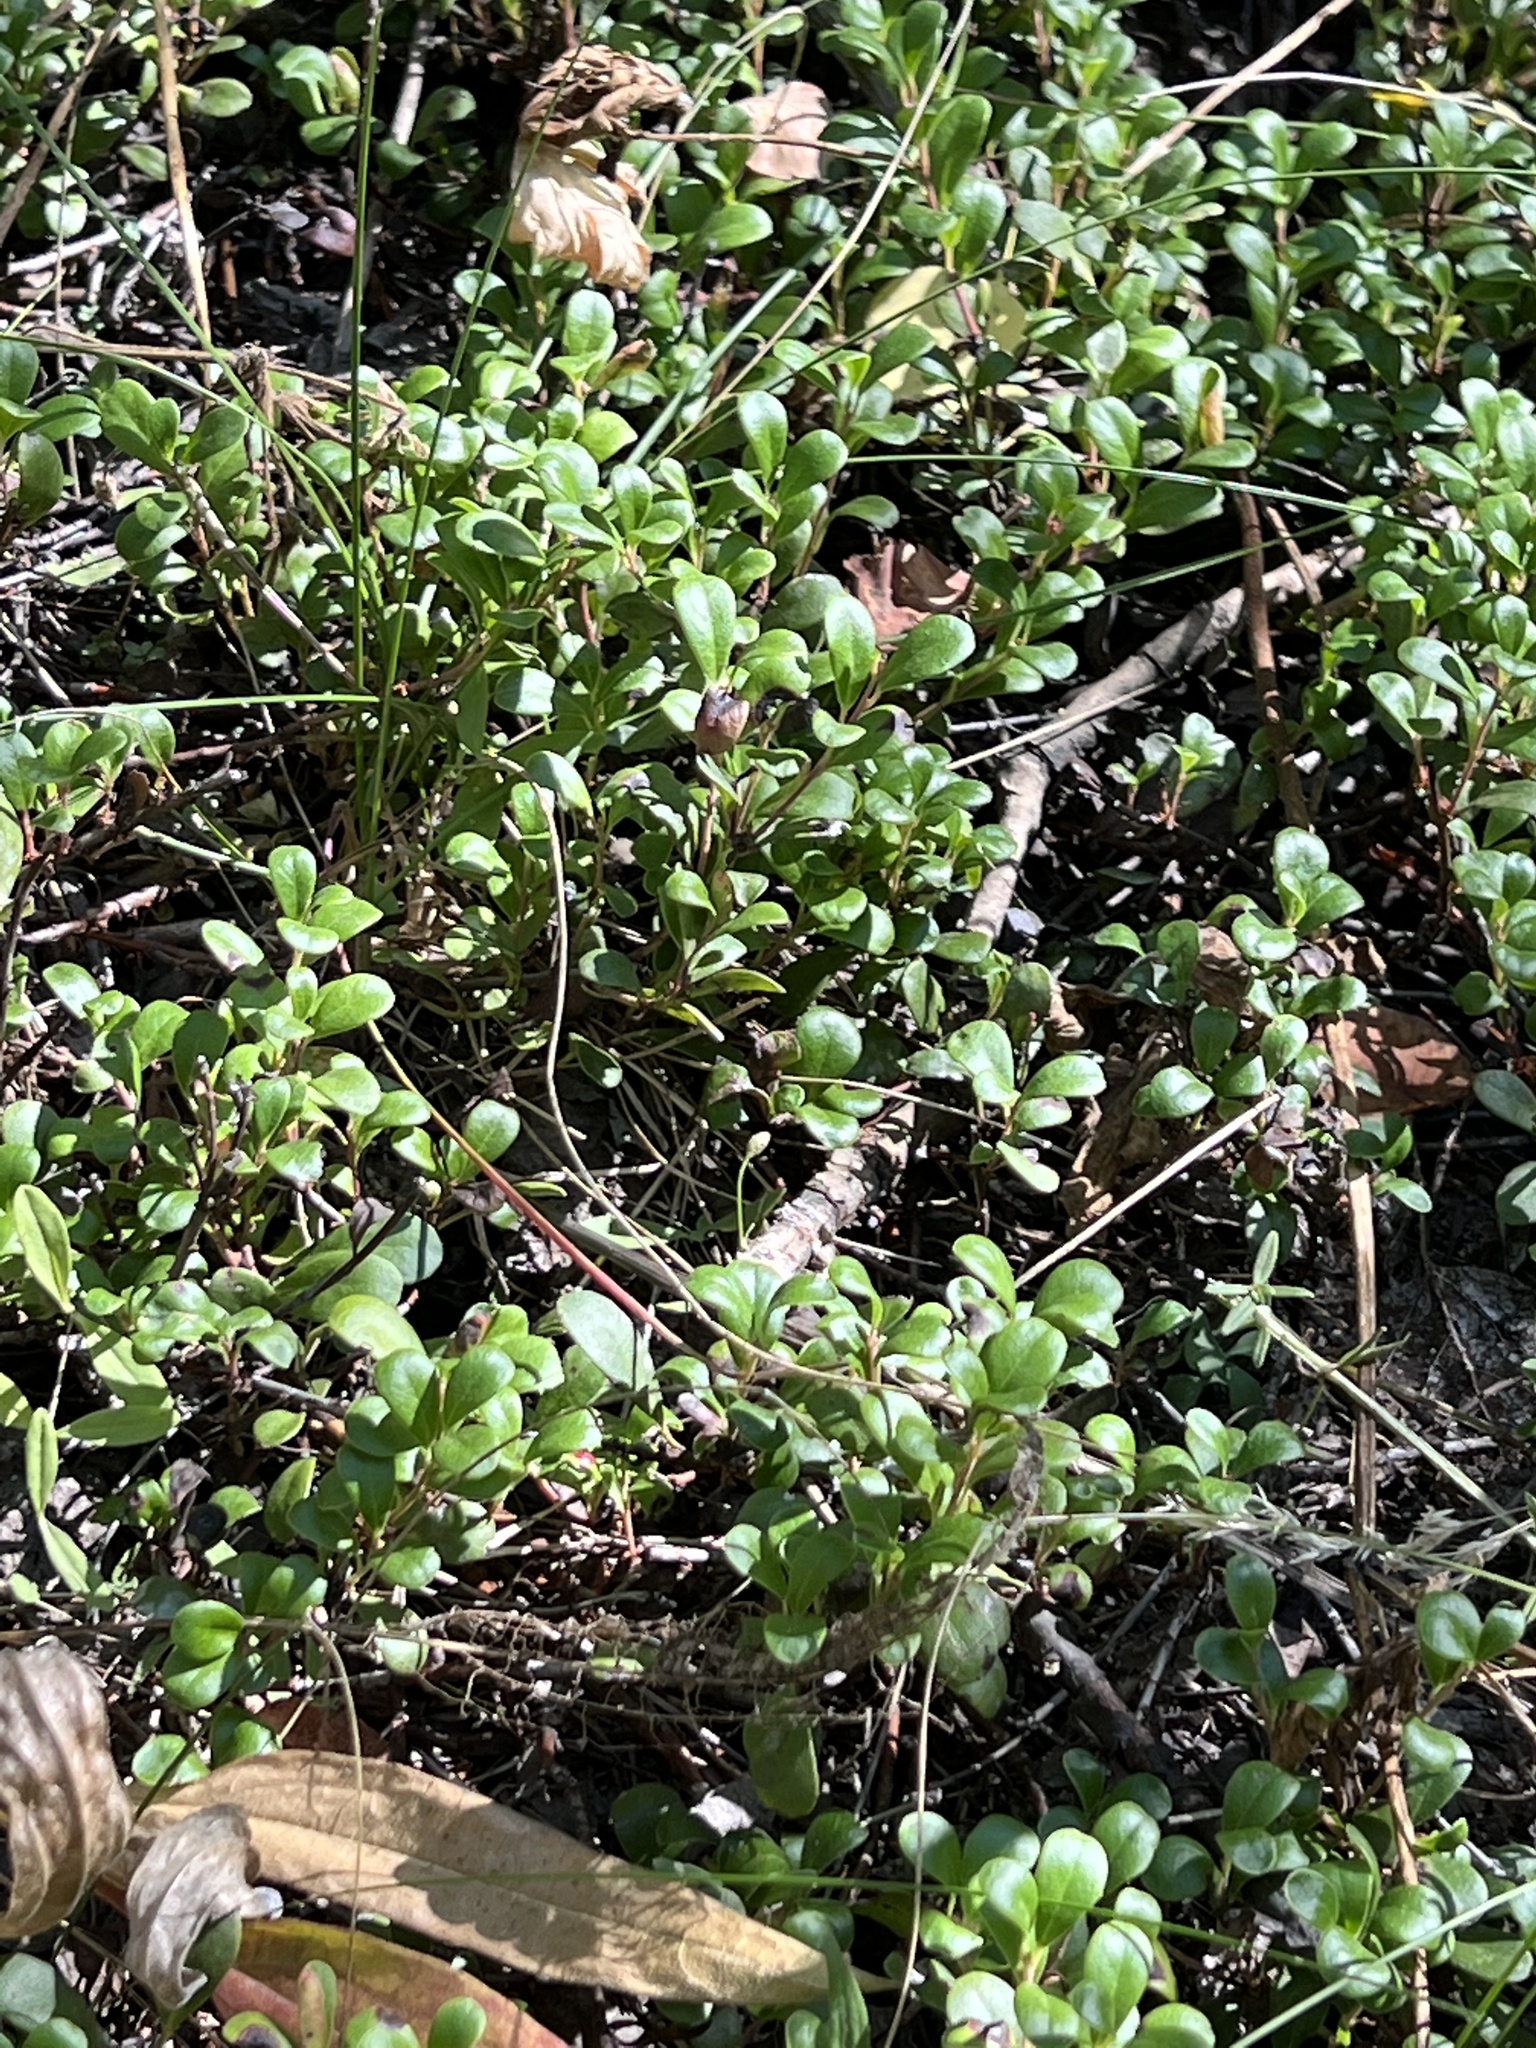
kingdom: Plantae
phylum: Tracheophyta
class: Magnoliopsida
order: Ericales
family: Ericaceae
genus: Arctostaphylos
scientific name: Arctostaphylos uva-ursi
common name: Bearberry
